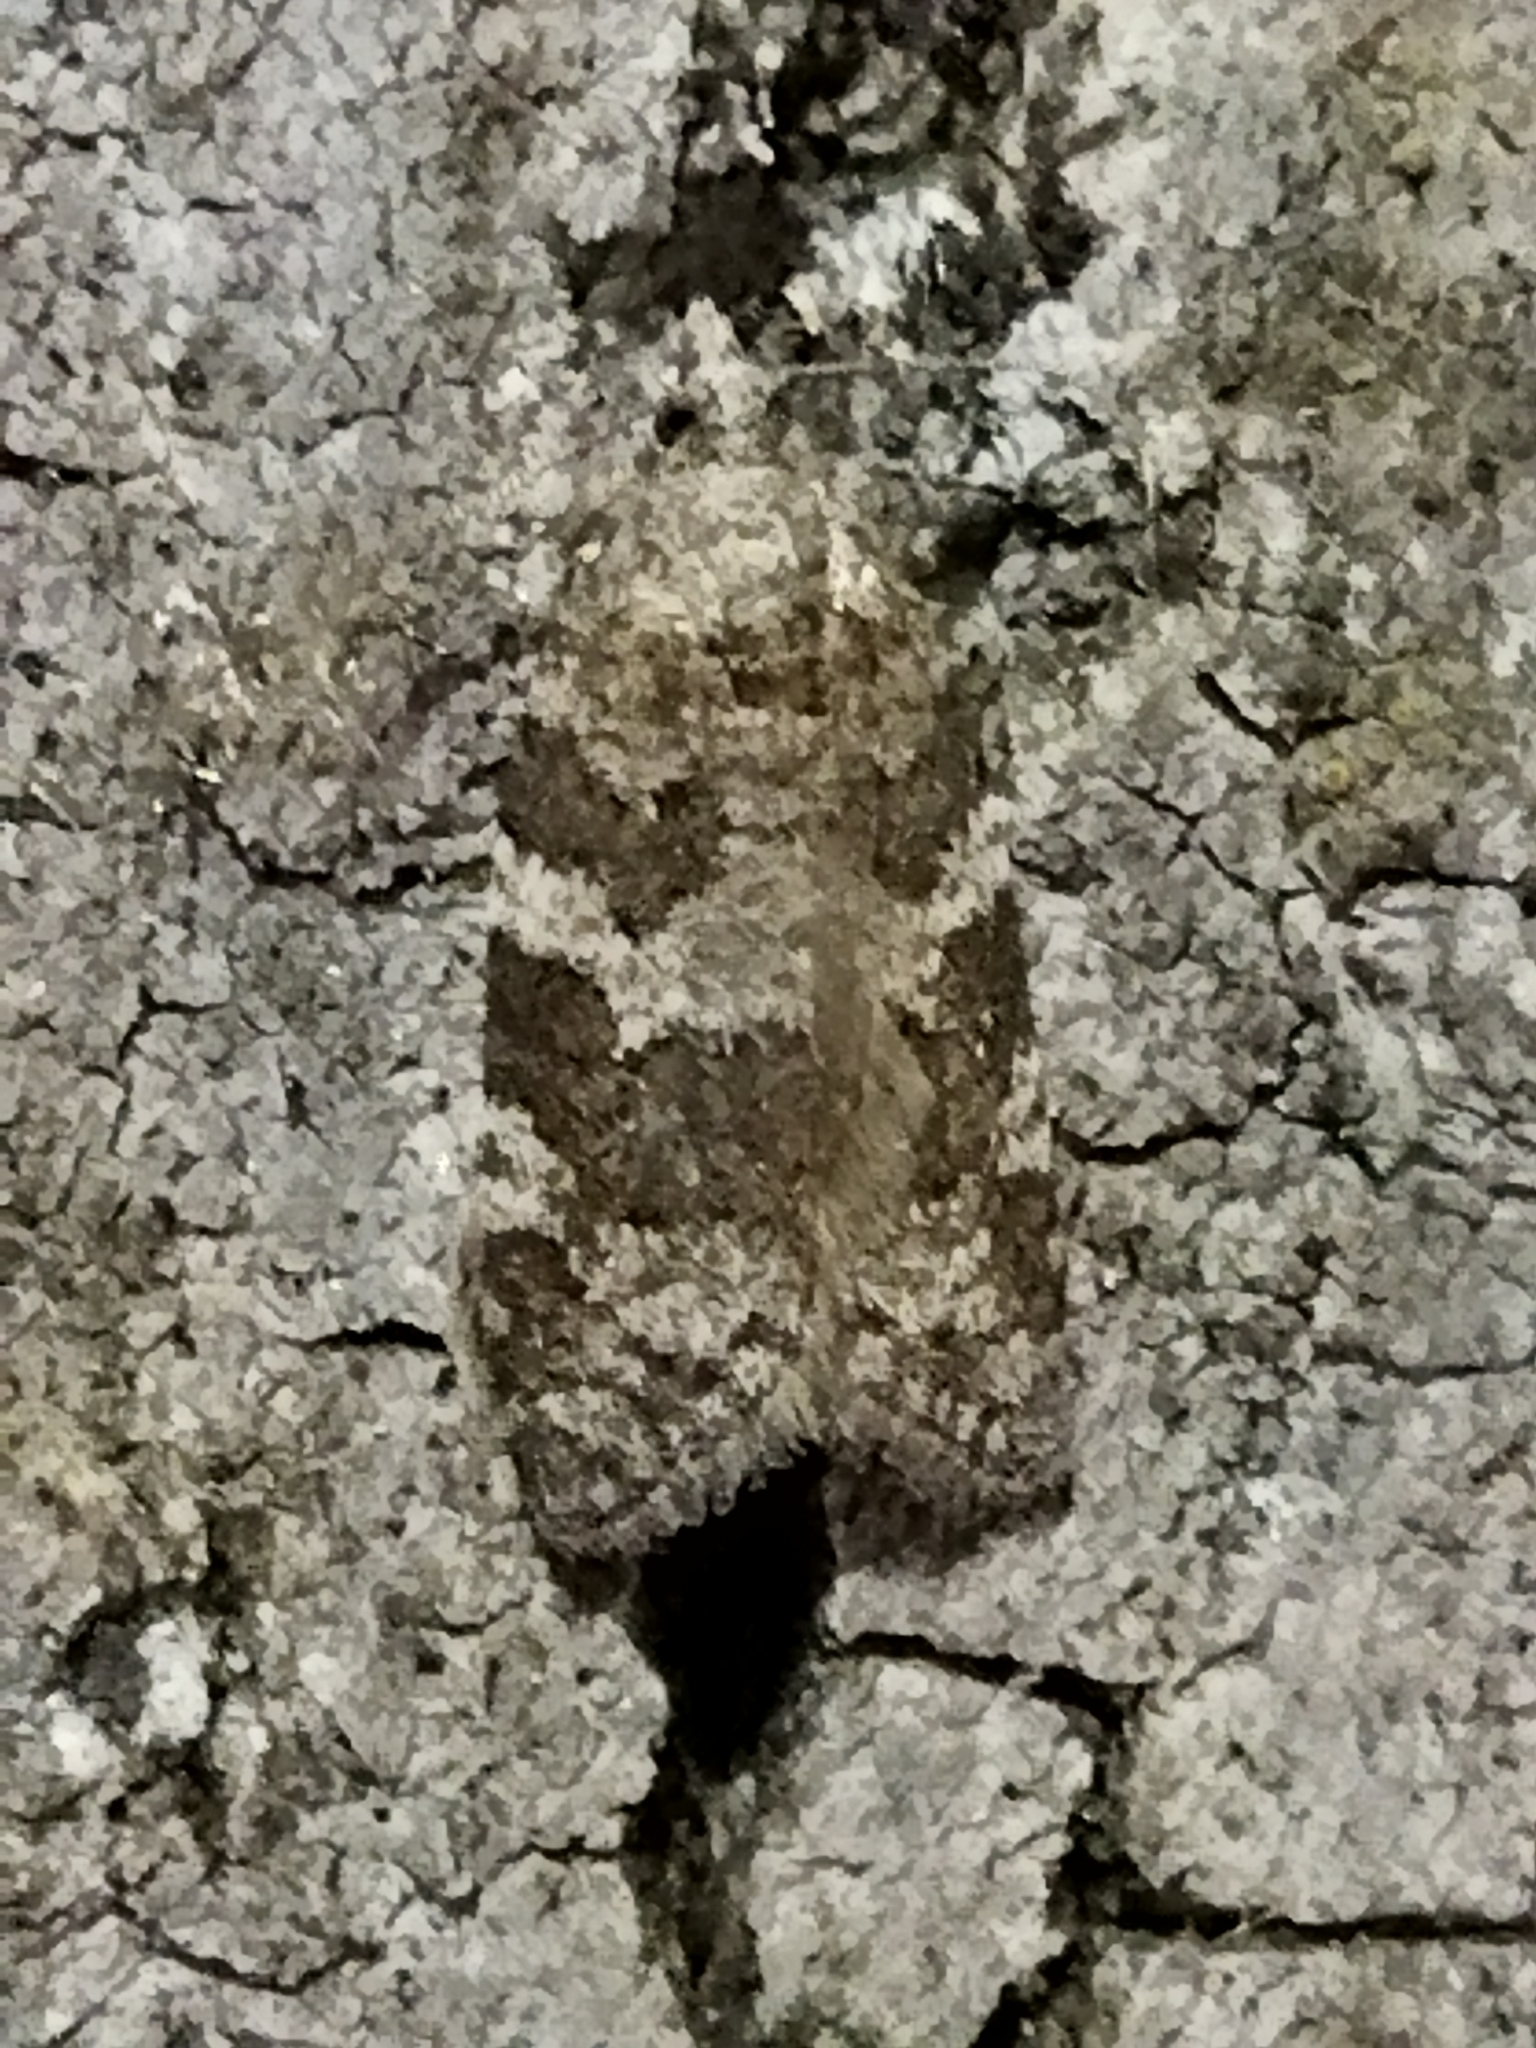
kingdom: Animalia
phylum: Arthropoda
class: Insecta
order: Lepidoptera
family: Tortricidae
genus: Cnephasia
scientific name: Cnephasia
